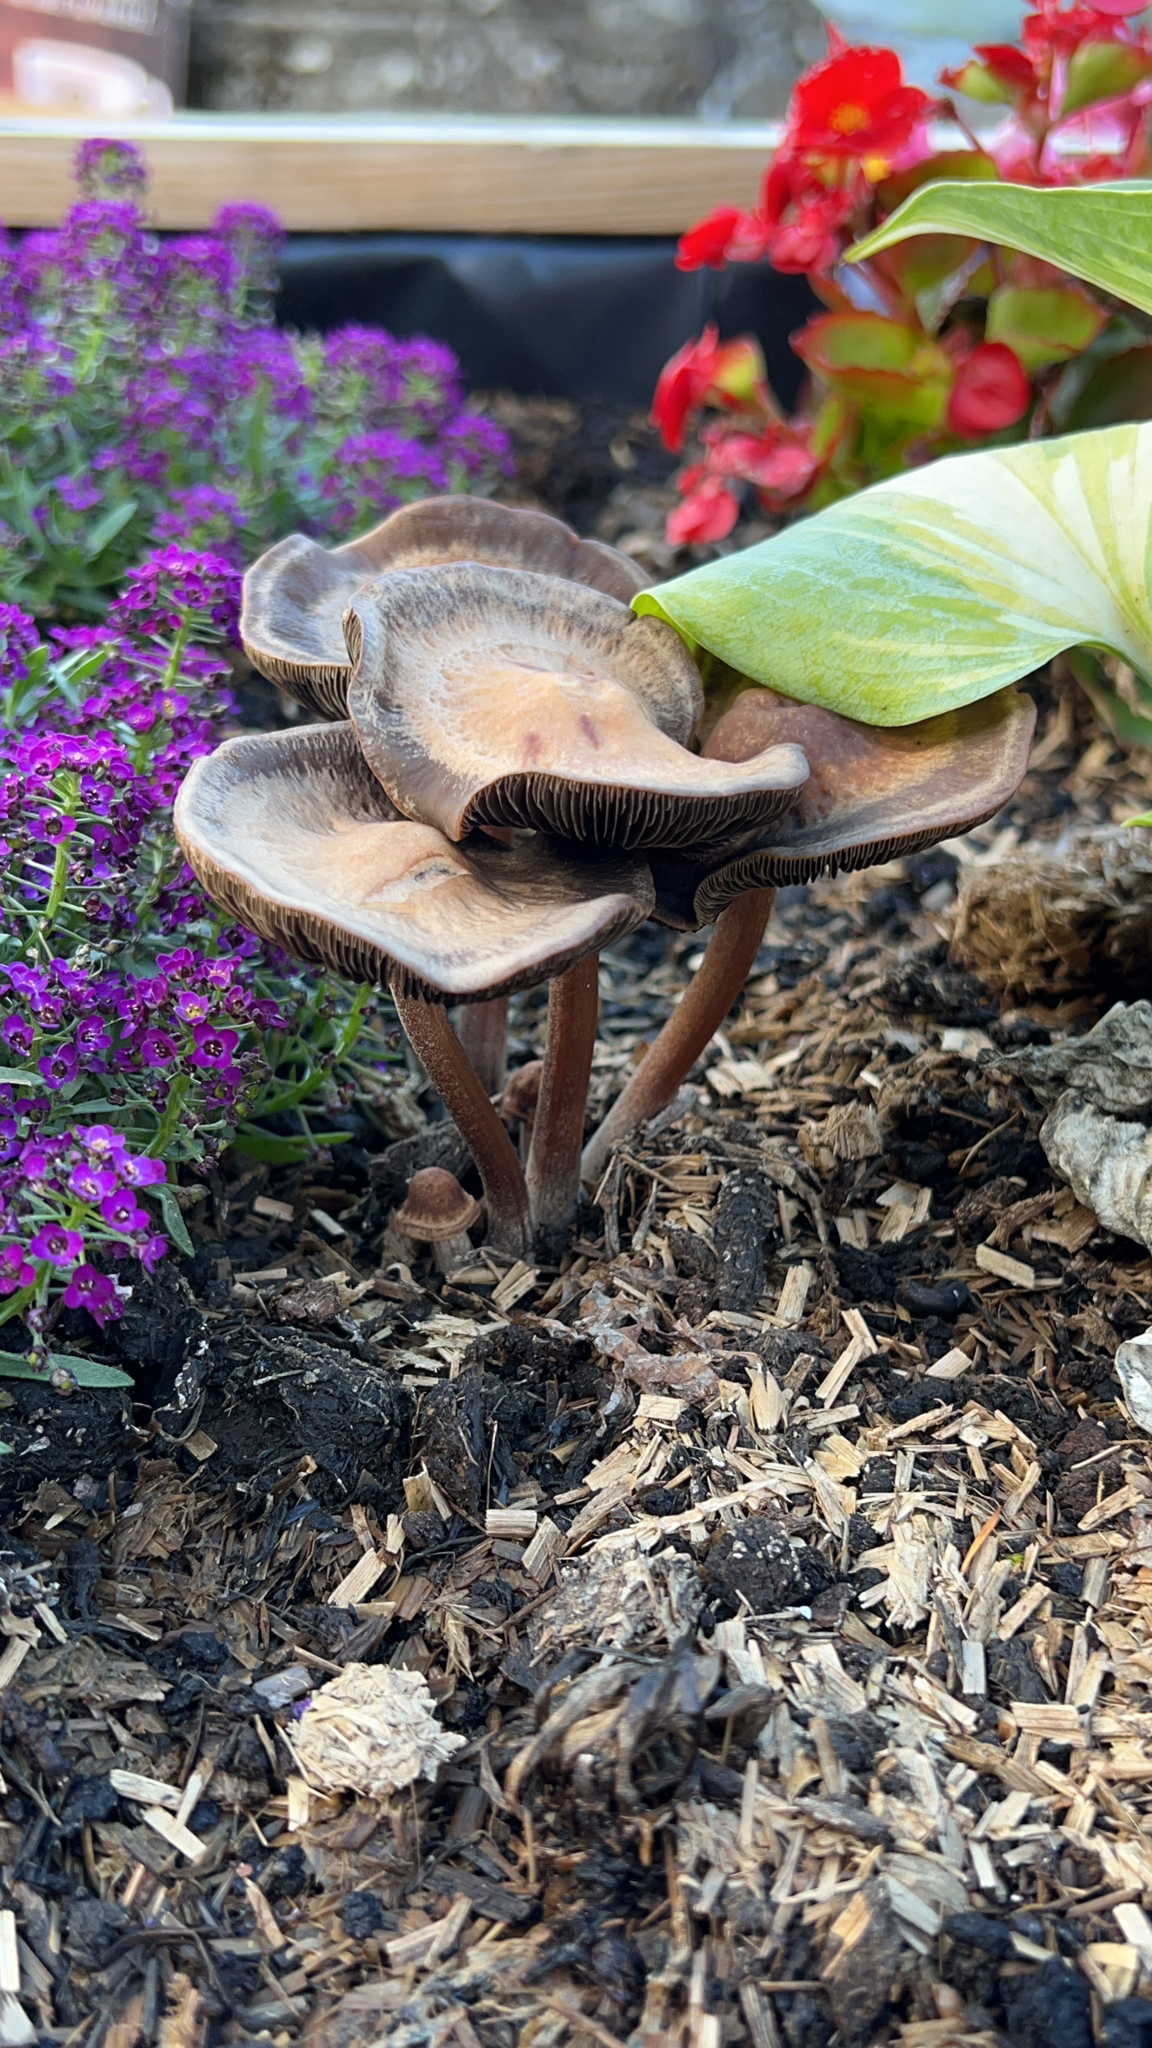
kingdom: Fungi
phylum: Basidiomycota
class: Agaricomycetes
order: Agaricales
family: Bolbitiaceae
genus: Panaeolus
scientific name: Panaeolus cinctulus
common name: Banded mottlegill
